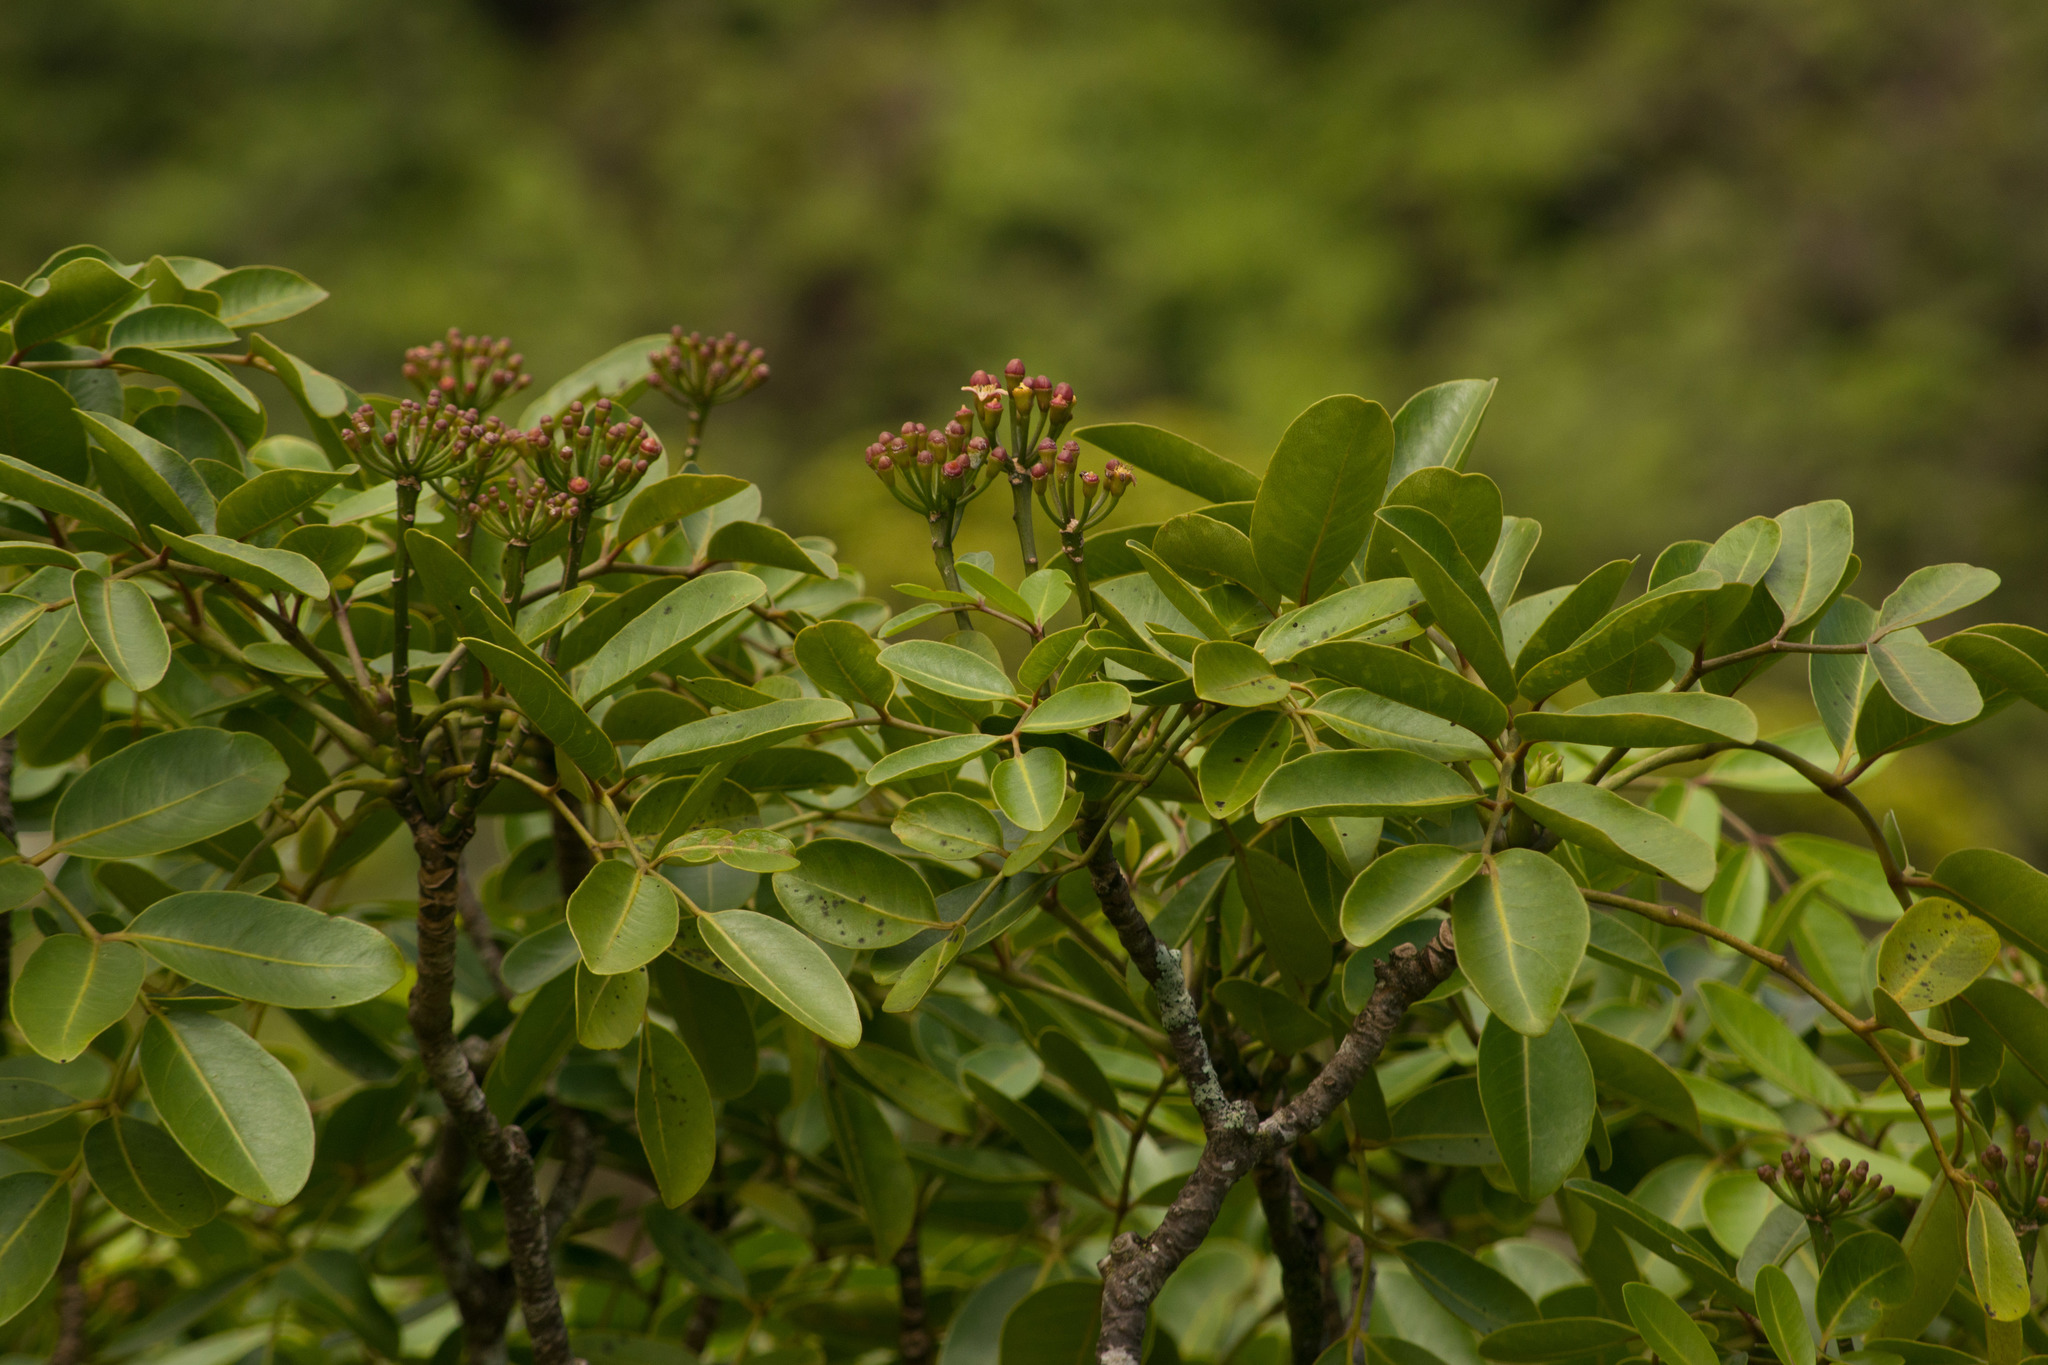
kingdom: Plantae
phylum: Tracheophyta
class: Magnoliopsida
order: Apiales
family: Araliaceae
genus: Polyscias
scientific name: Polyscias oahuensis
